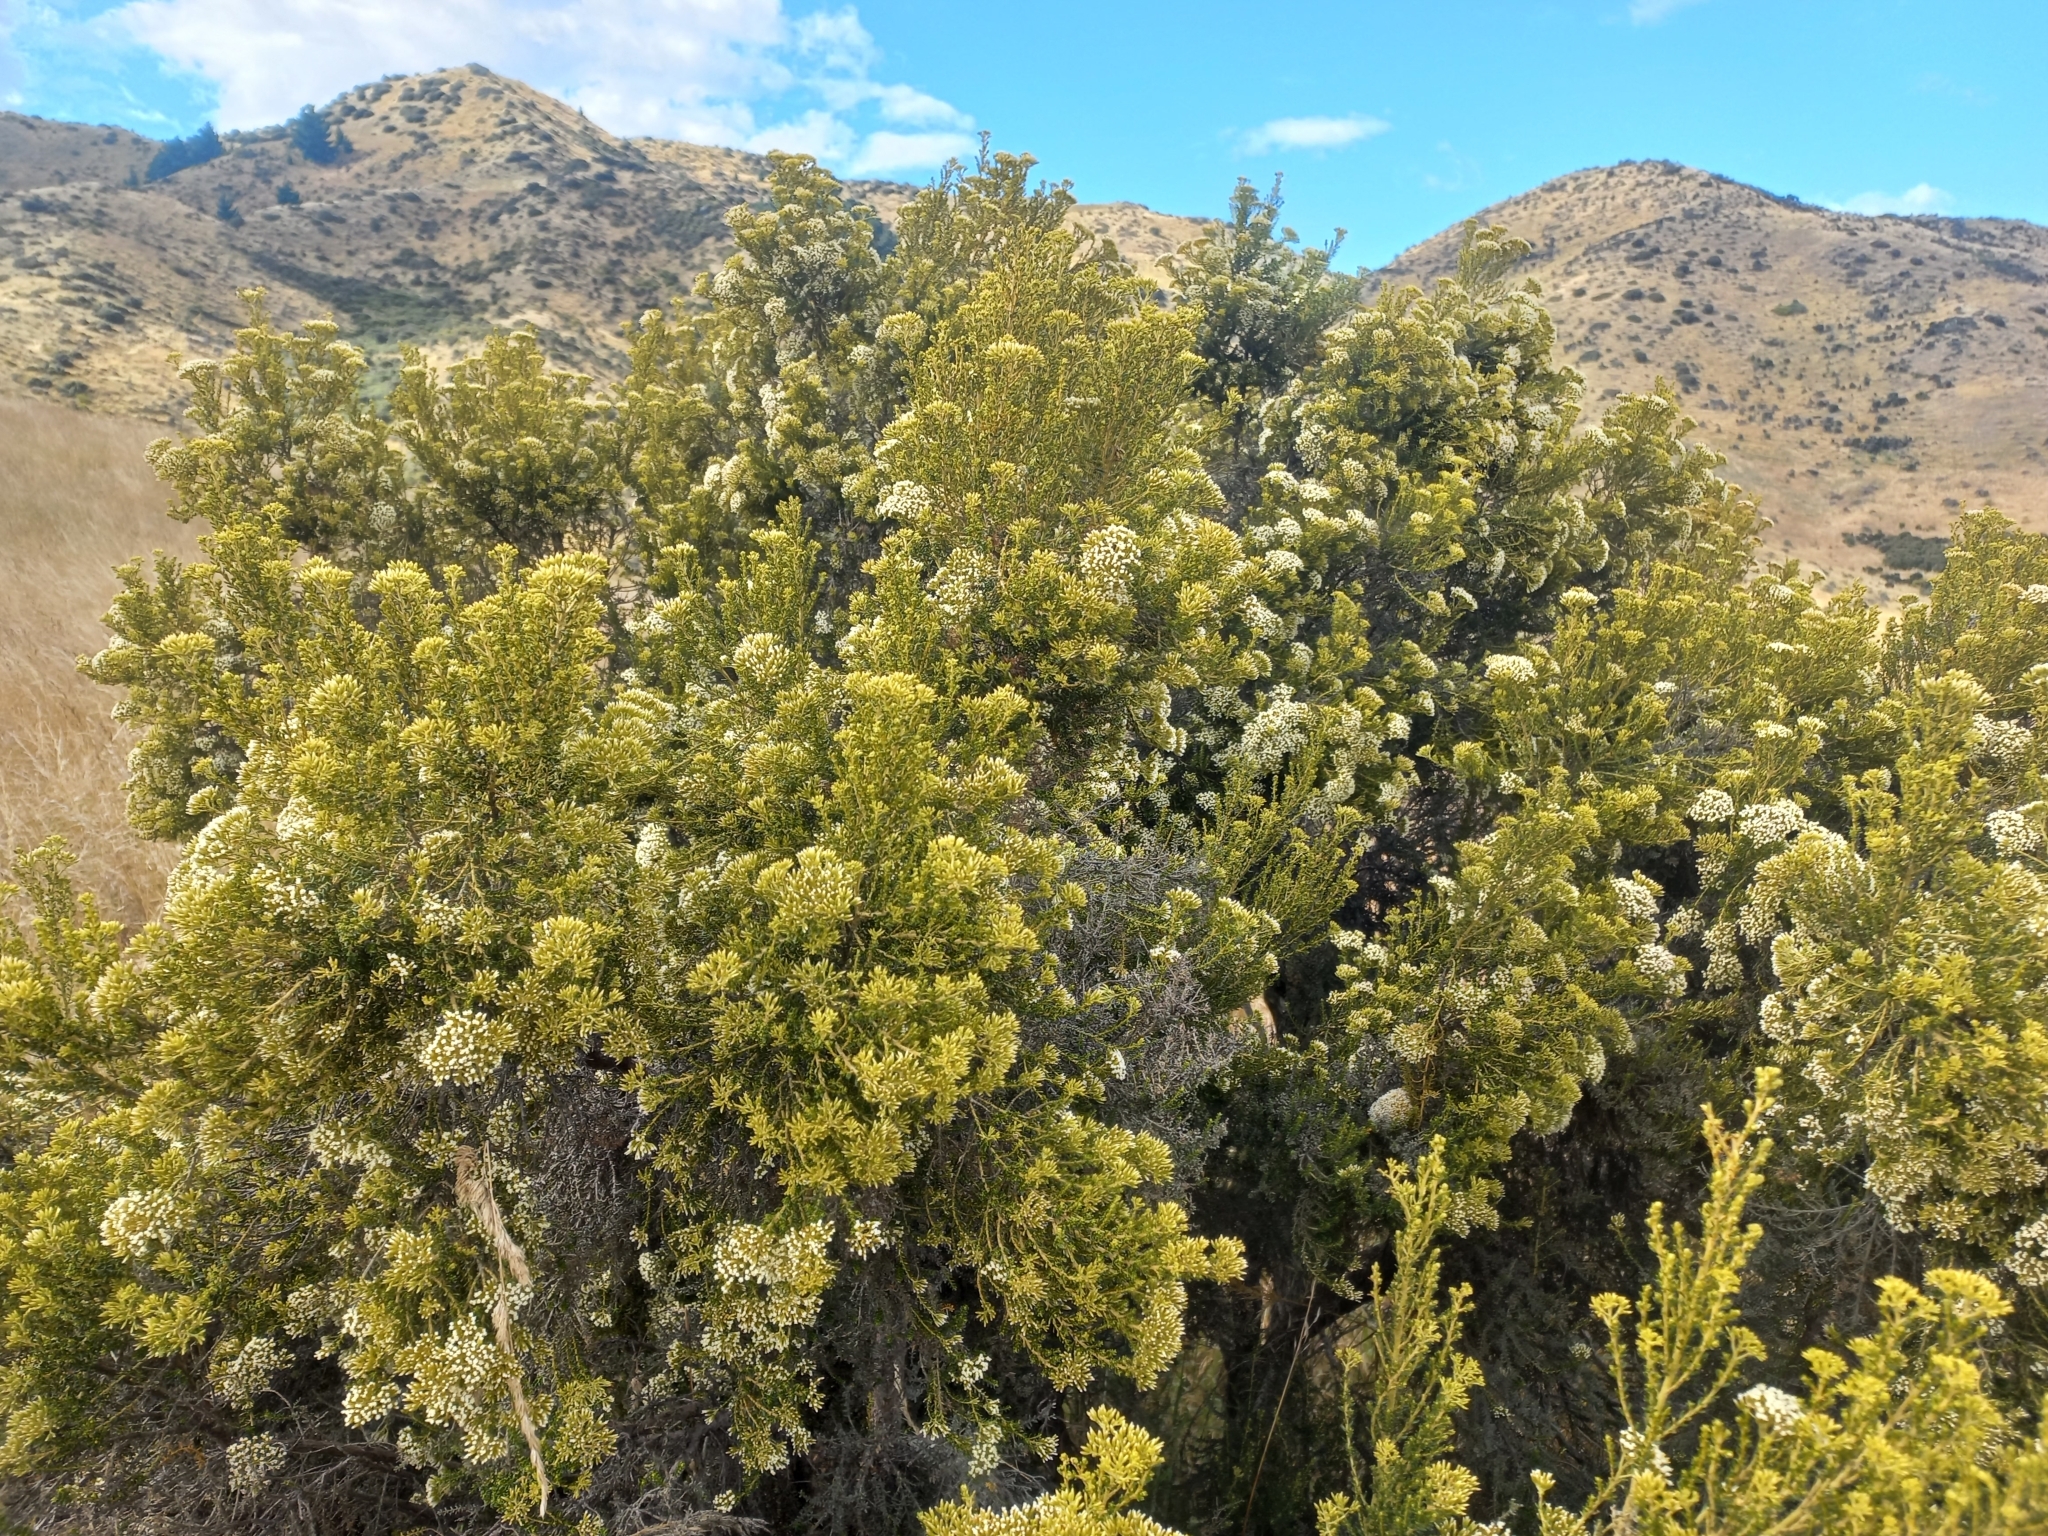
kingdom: Plantae
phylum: Tracheophyta
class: Magnoliopsida
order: Asterales
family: Asteraceae
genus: Ozothamnus
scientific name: Ozothamnus leptophyllus
